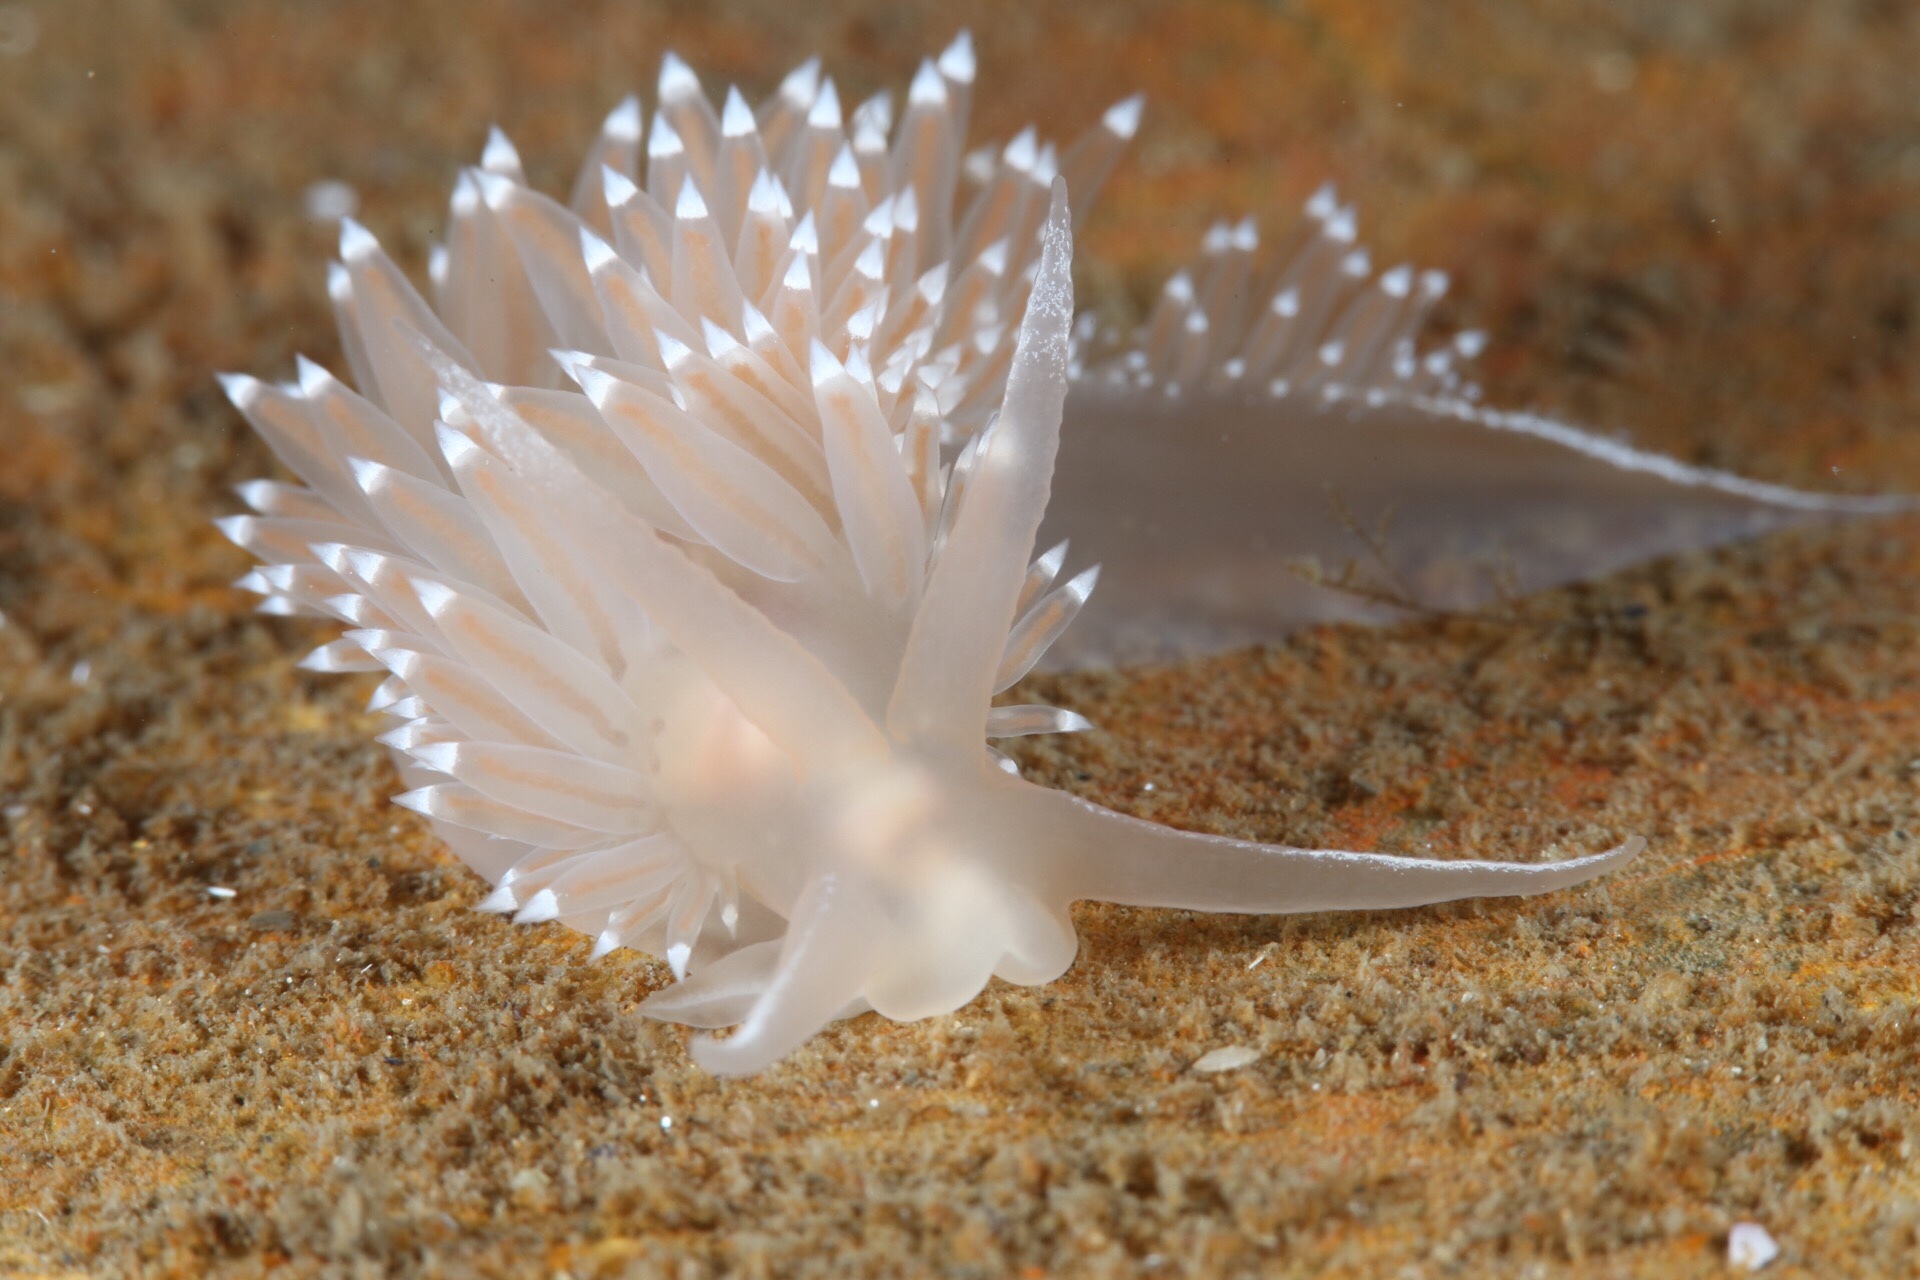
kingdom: Animalia
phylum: Mollusca
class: Gastropoda
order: Nudibranchia
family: Coryphellidae
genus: Coryphella
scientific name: Coryphella verrucosa
